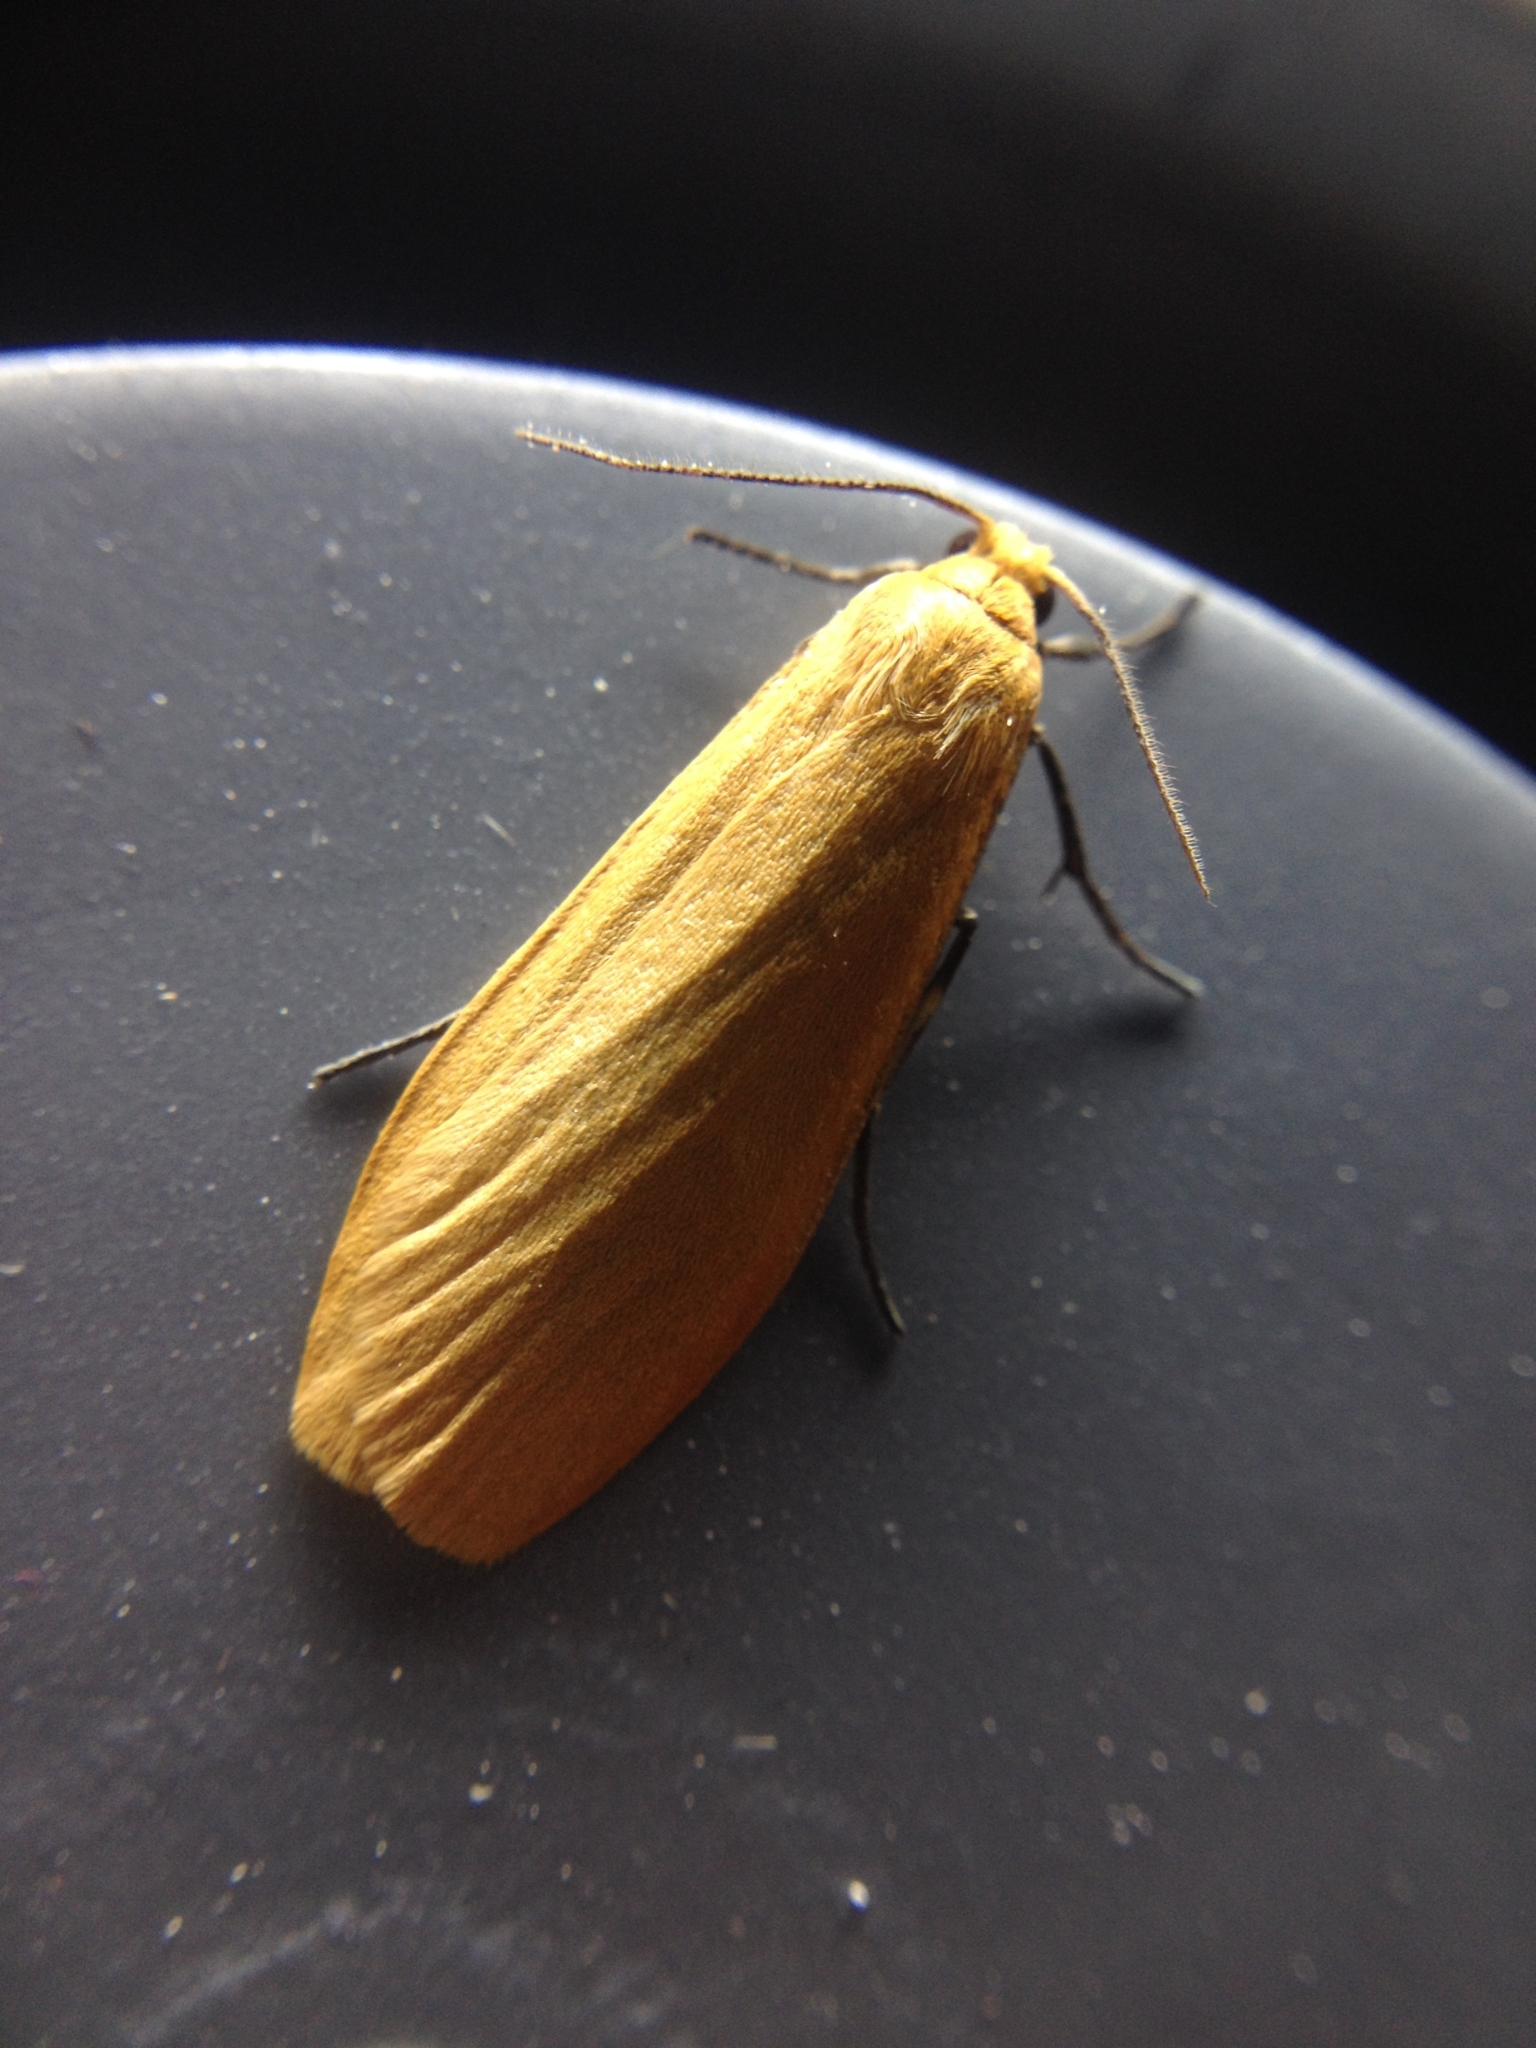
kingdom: Animalia
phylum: Arthropoda
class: Insecta
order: Lepidoptera
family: Erebidae
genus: Wittia
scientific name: Wittia sororcula
